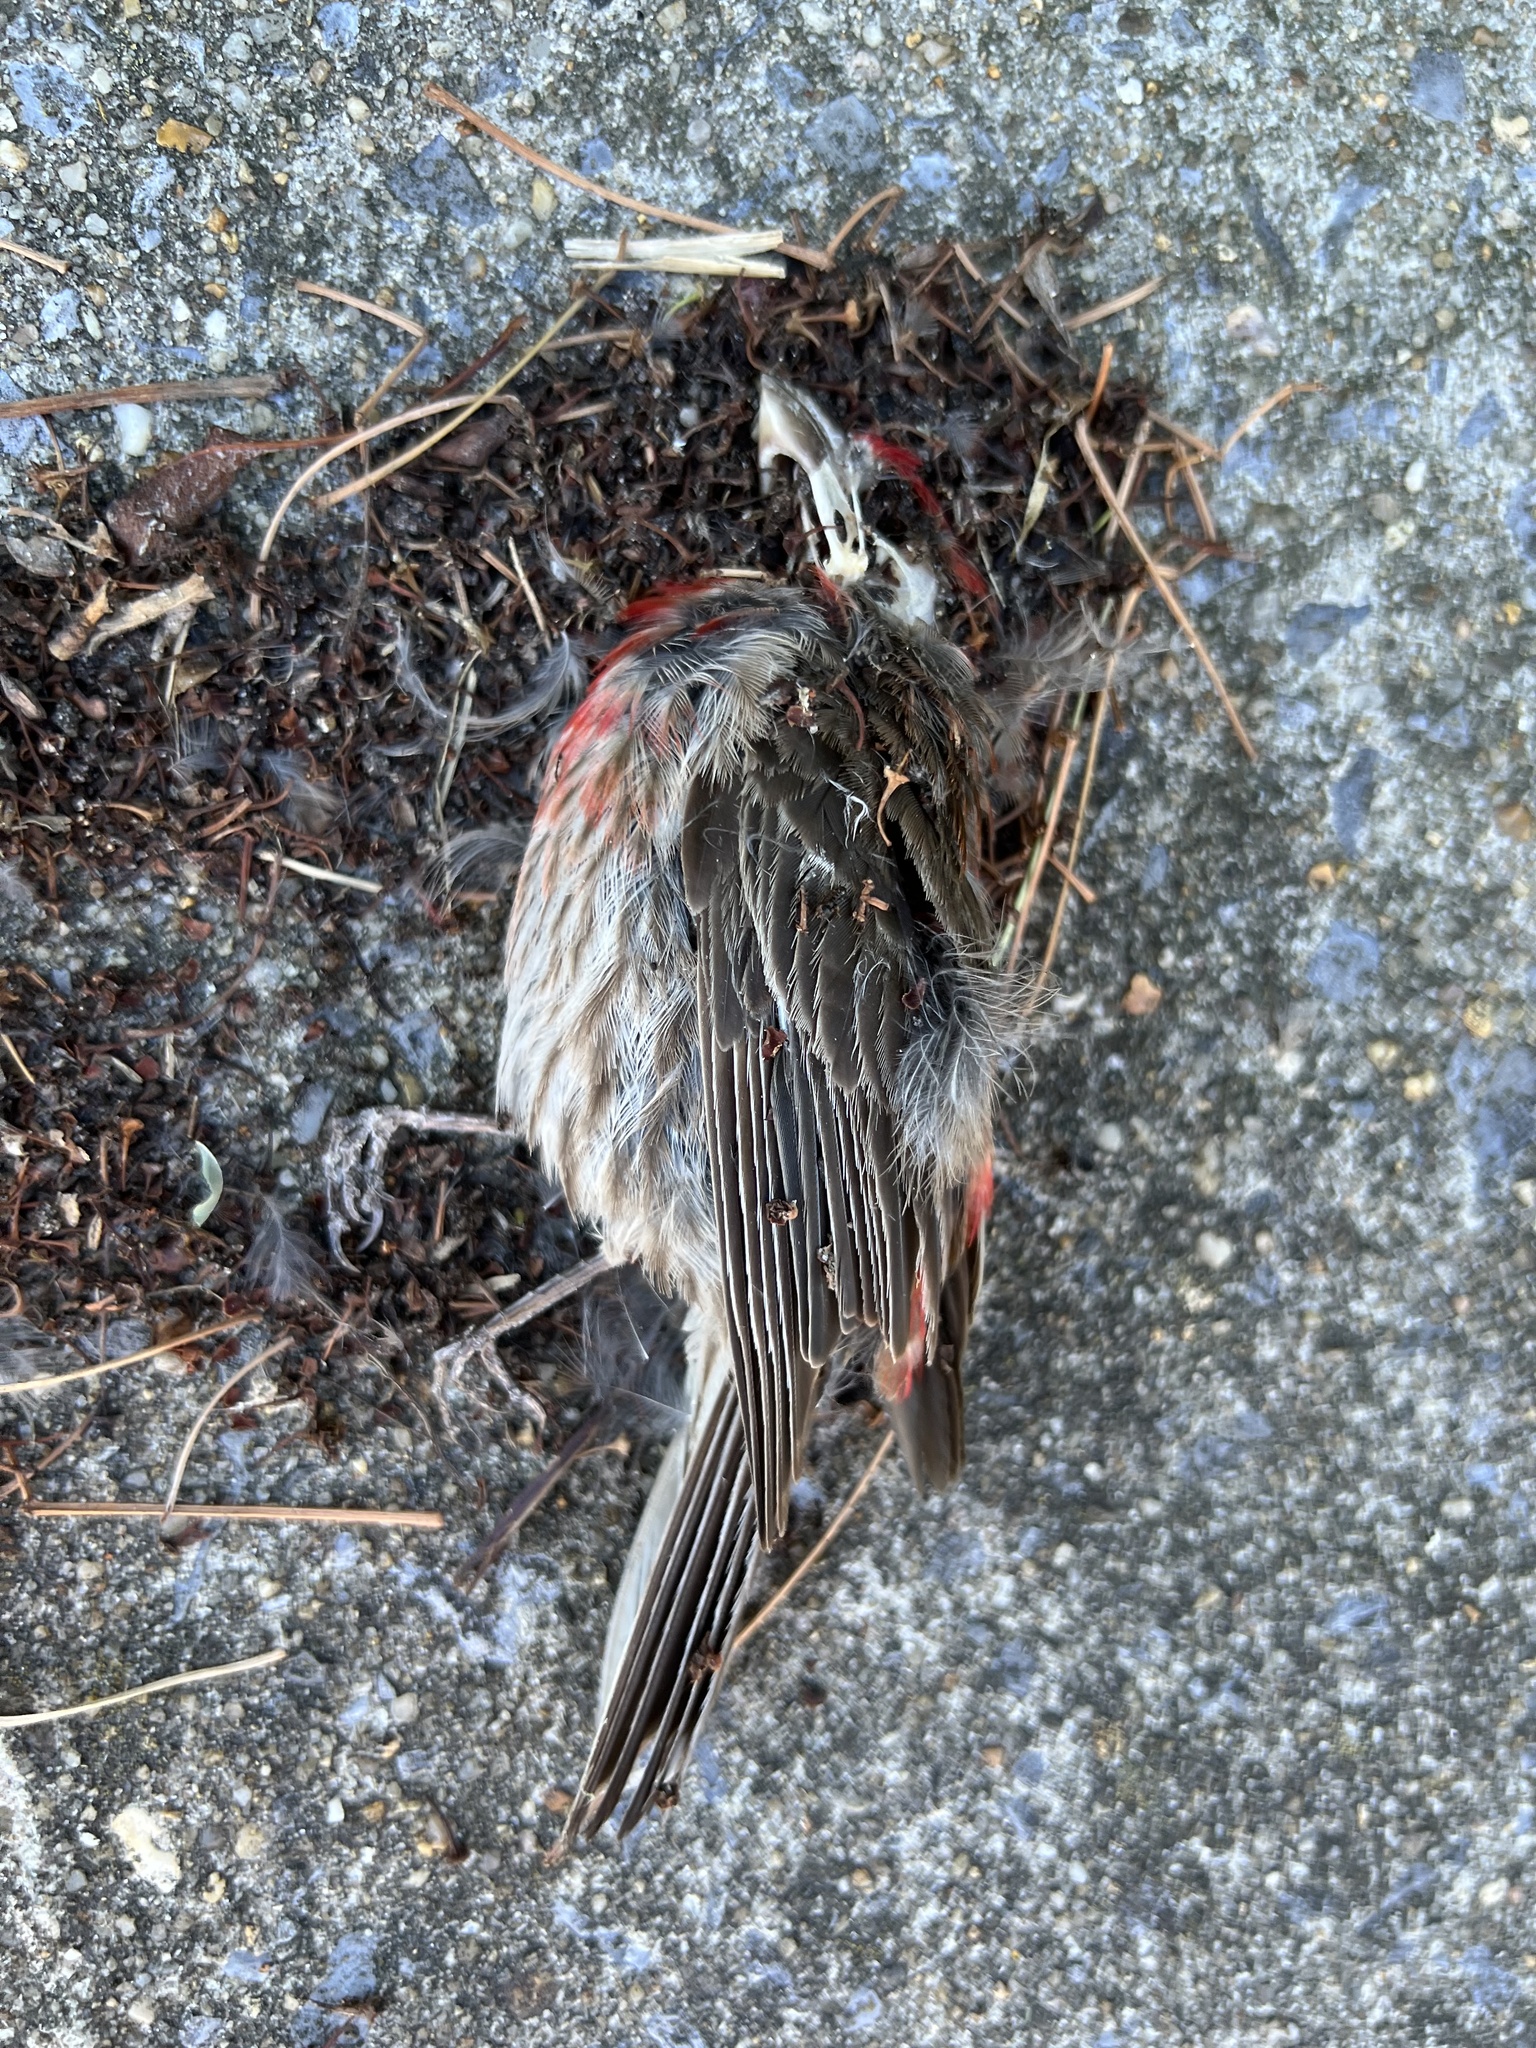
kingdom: Animalia
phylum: Chordata
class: Aves
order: Passeriformes
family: Fringillidae
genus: Haemorhous
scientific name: Haemorhous mexicanus
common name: House finch
